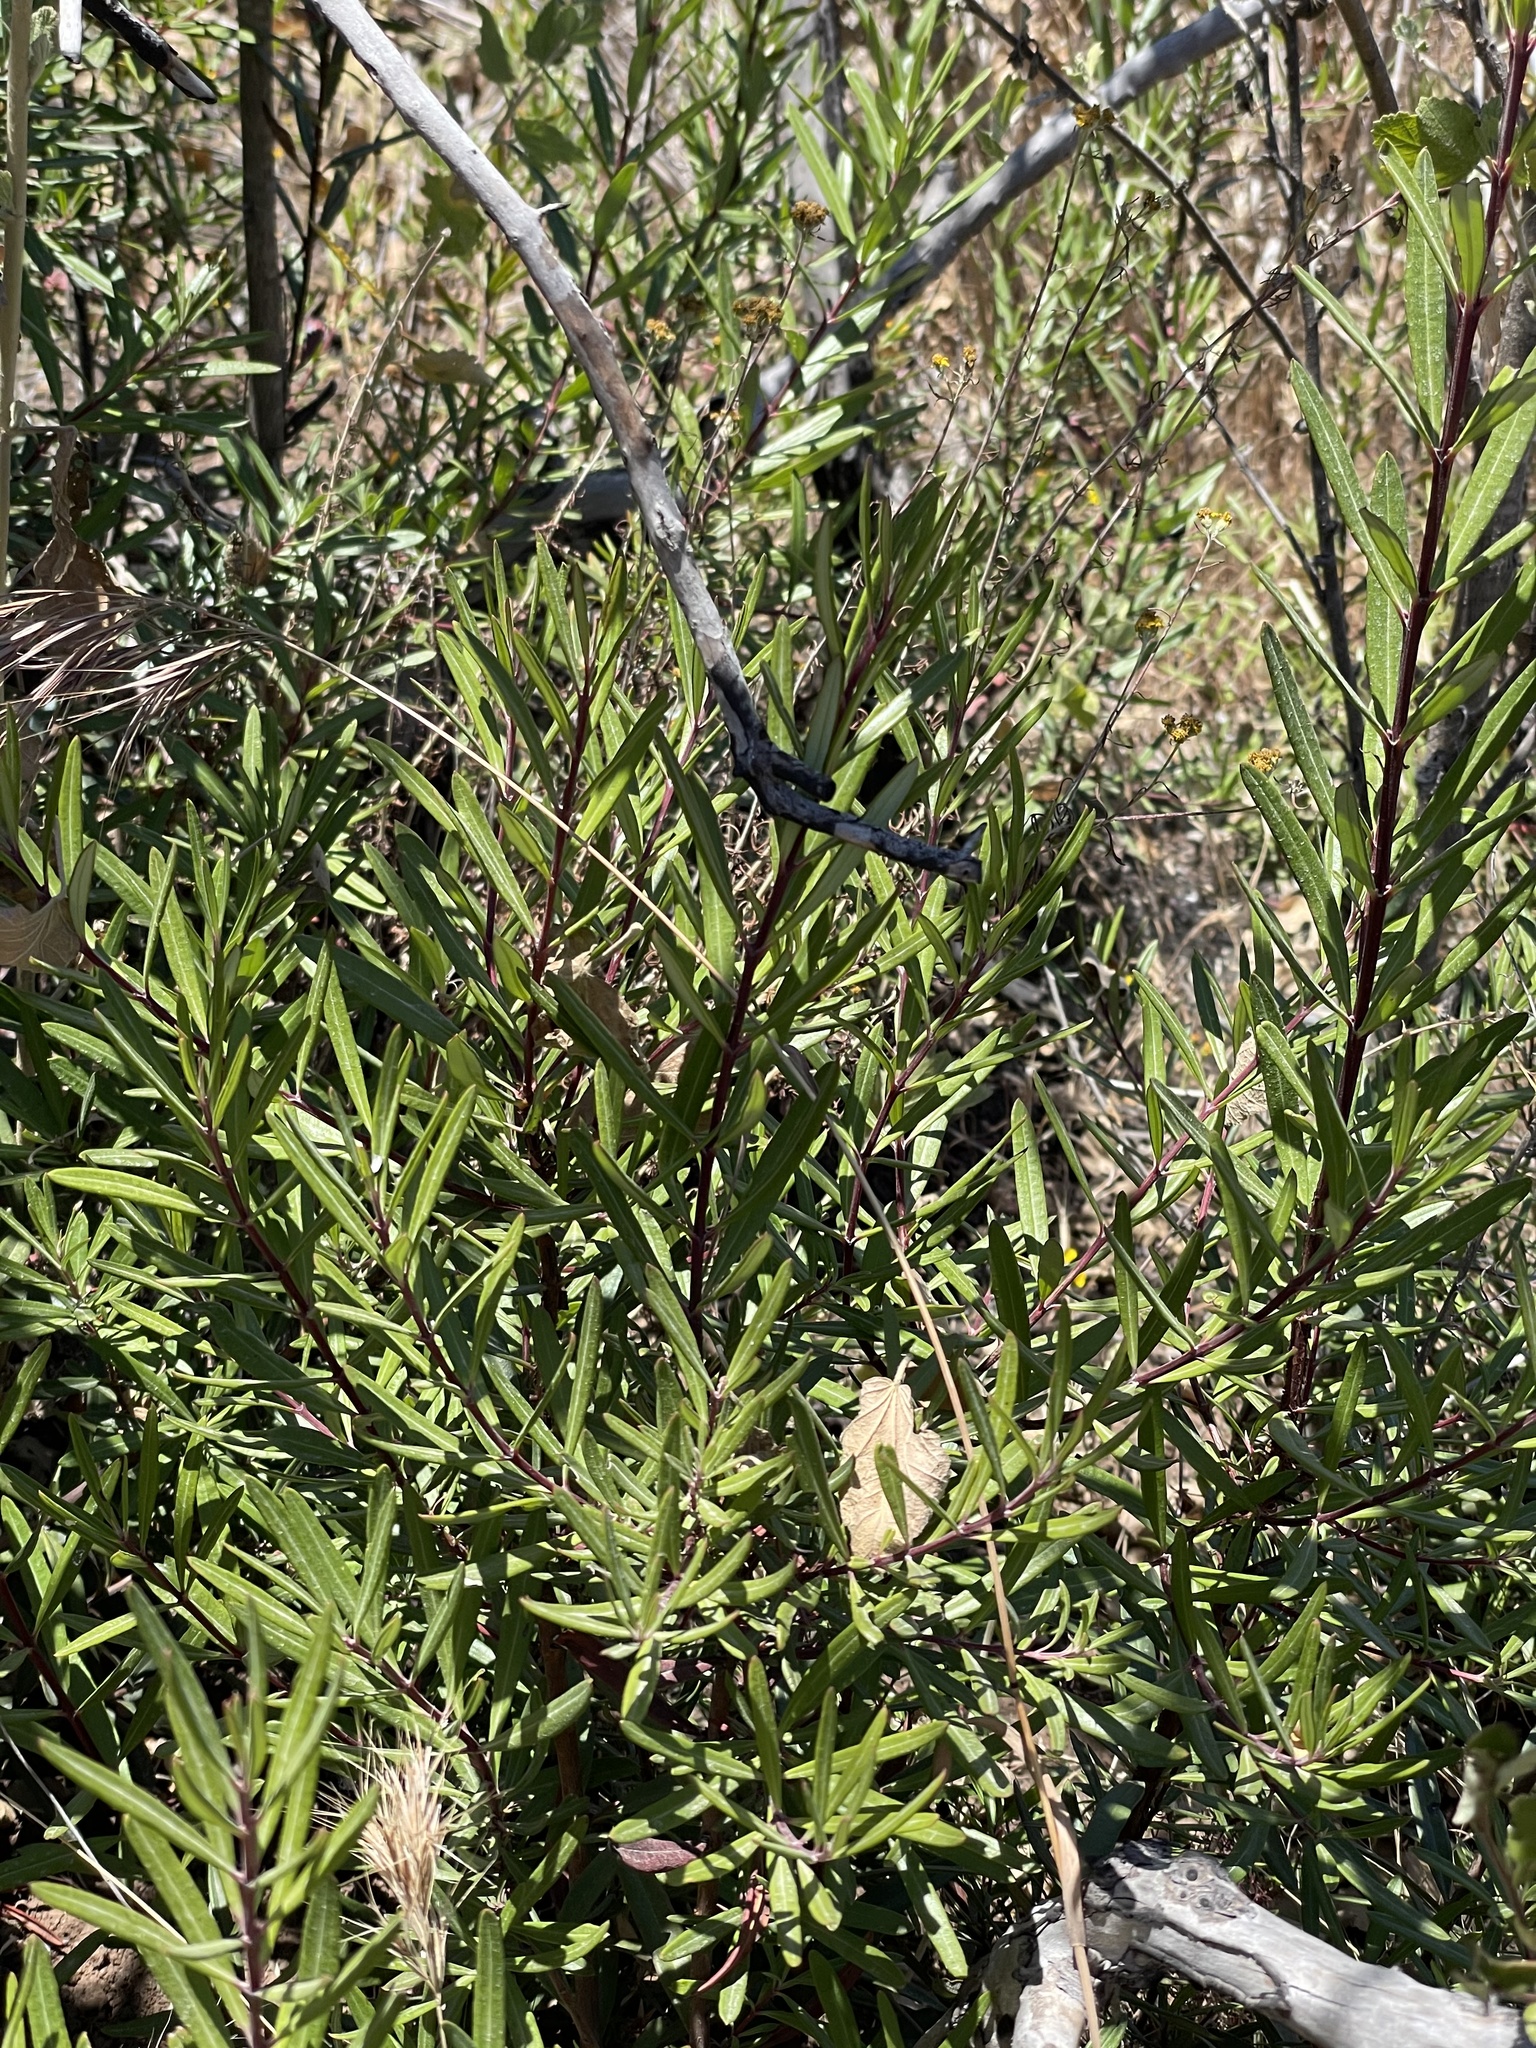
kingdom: Plantae
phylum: Tracheophyta
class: Magnoliopsida
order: Ericales
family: Ericaceae
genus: Ornithostaphylos
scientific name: Ornithostaphylos oppositifolia
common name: Baja california birdbush
